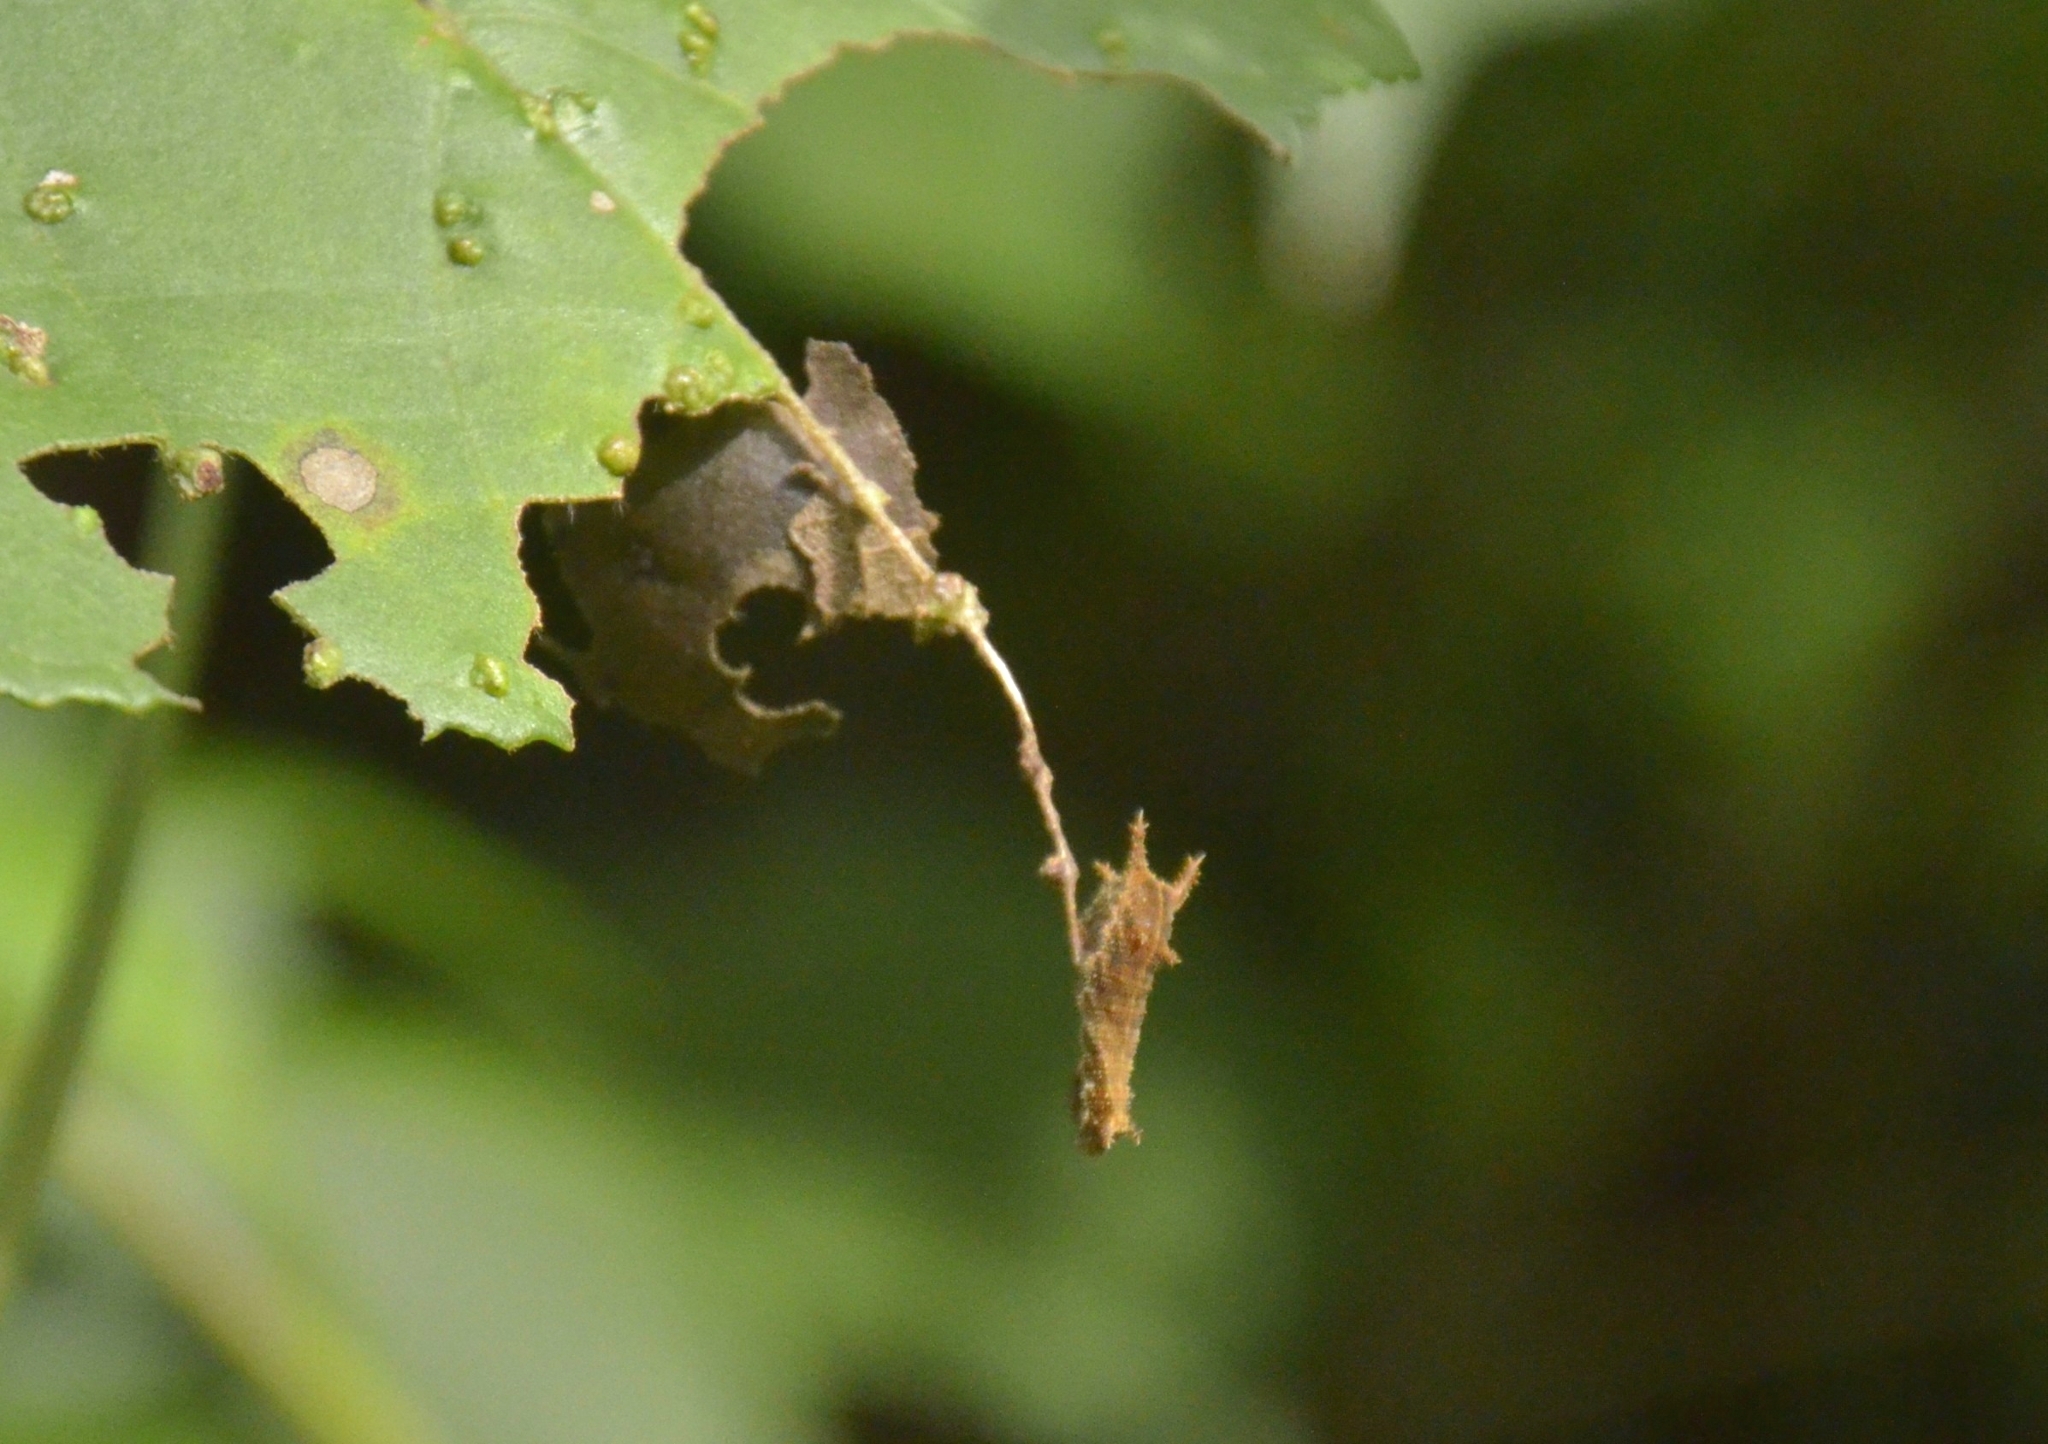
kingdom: Animalia
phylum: Arthropoda
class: Insecta
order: Lepidoptera
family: Nymphalidae
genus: Neptis
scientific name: Neptis jumbah
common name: Chestnut-streaked sailer
